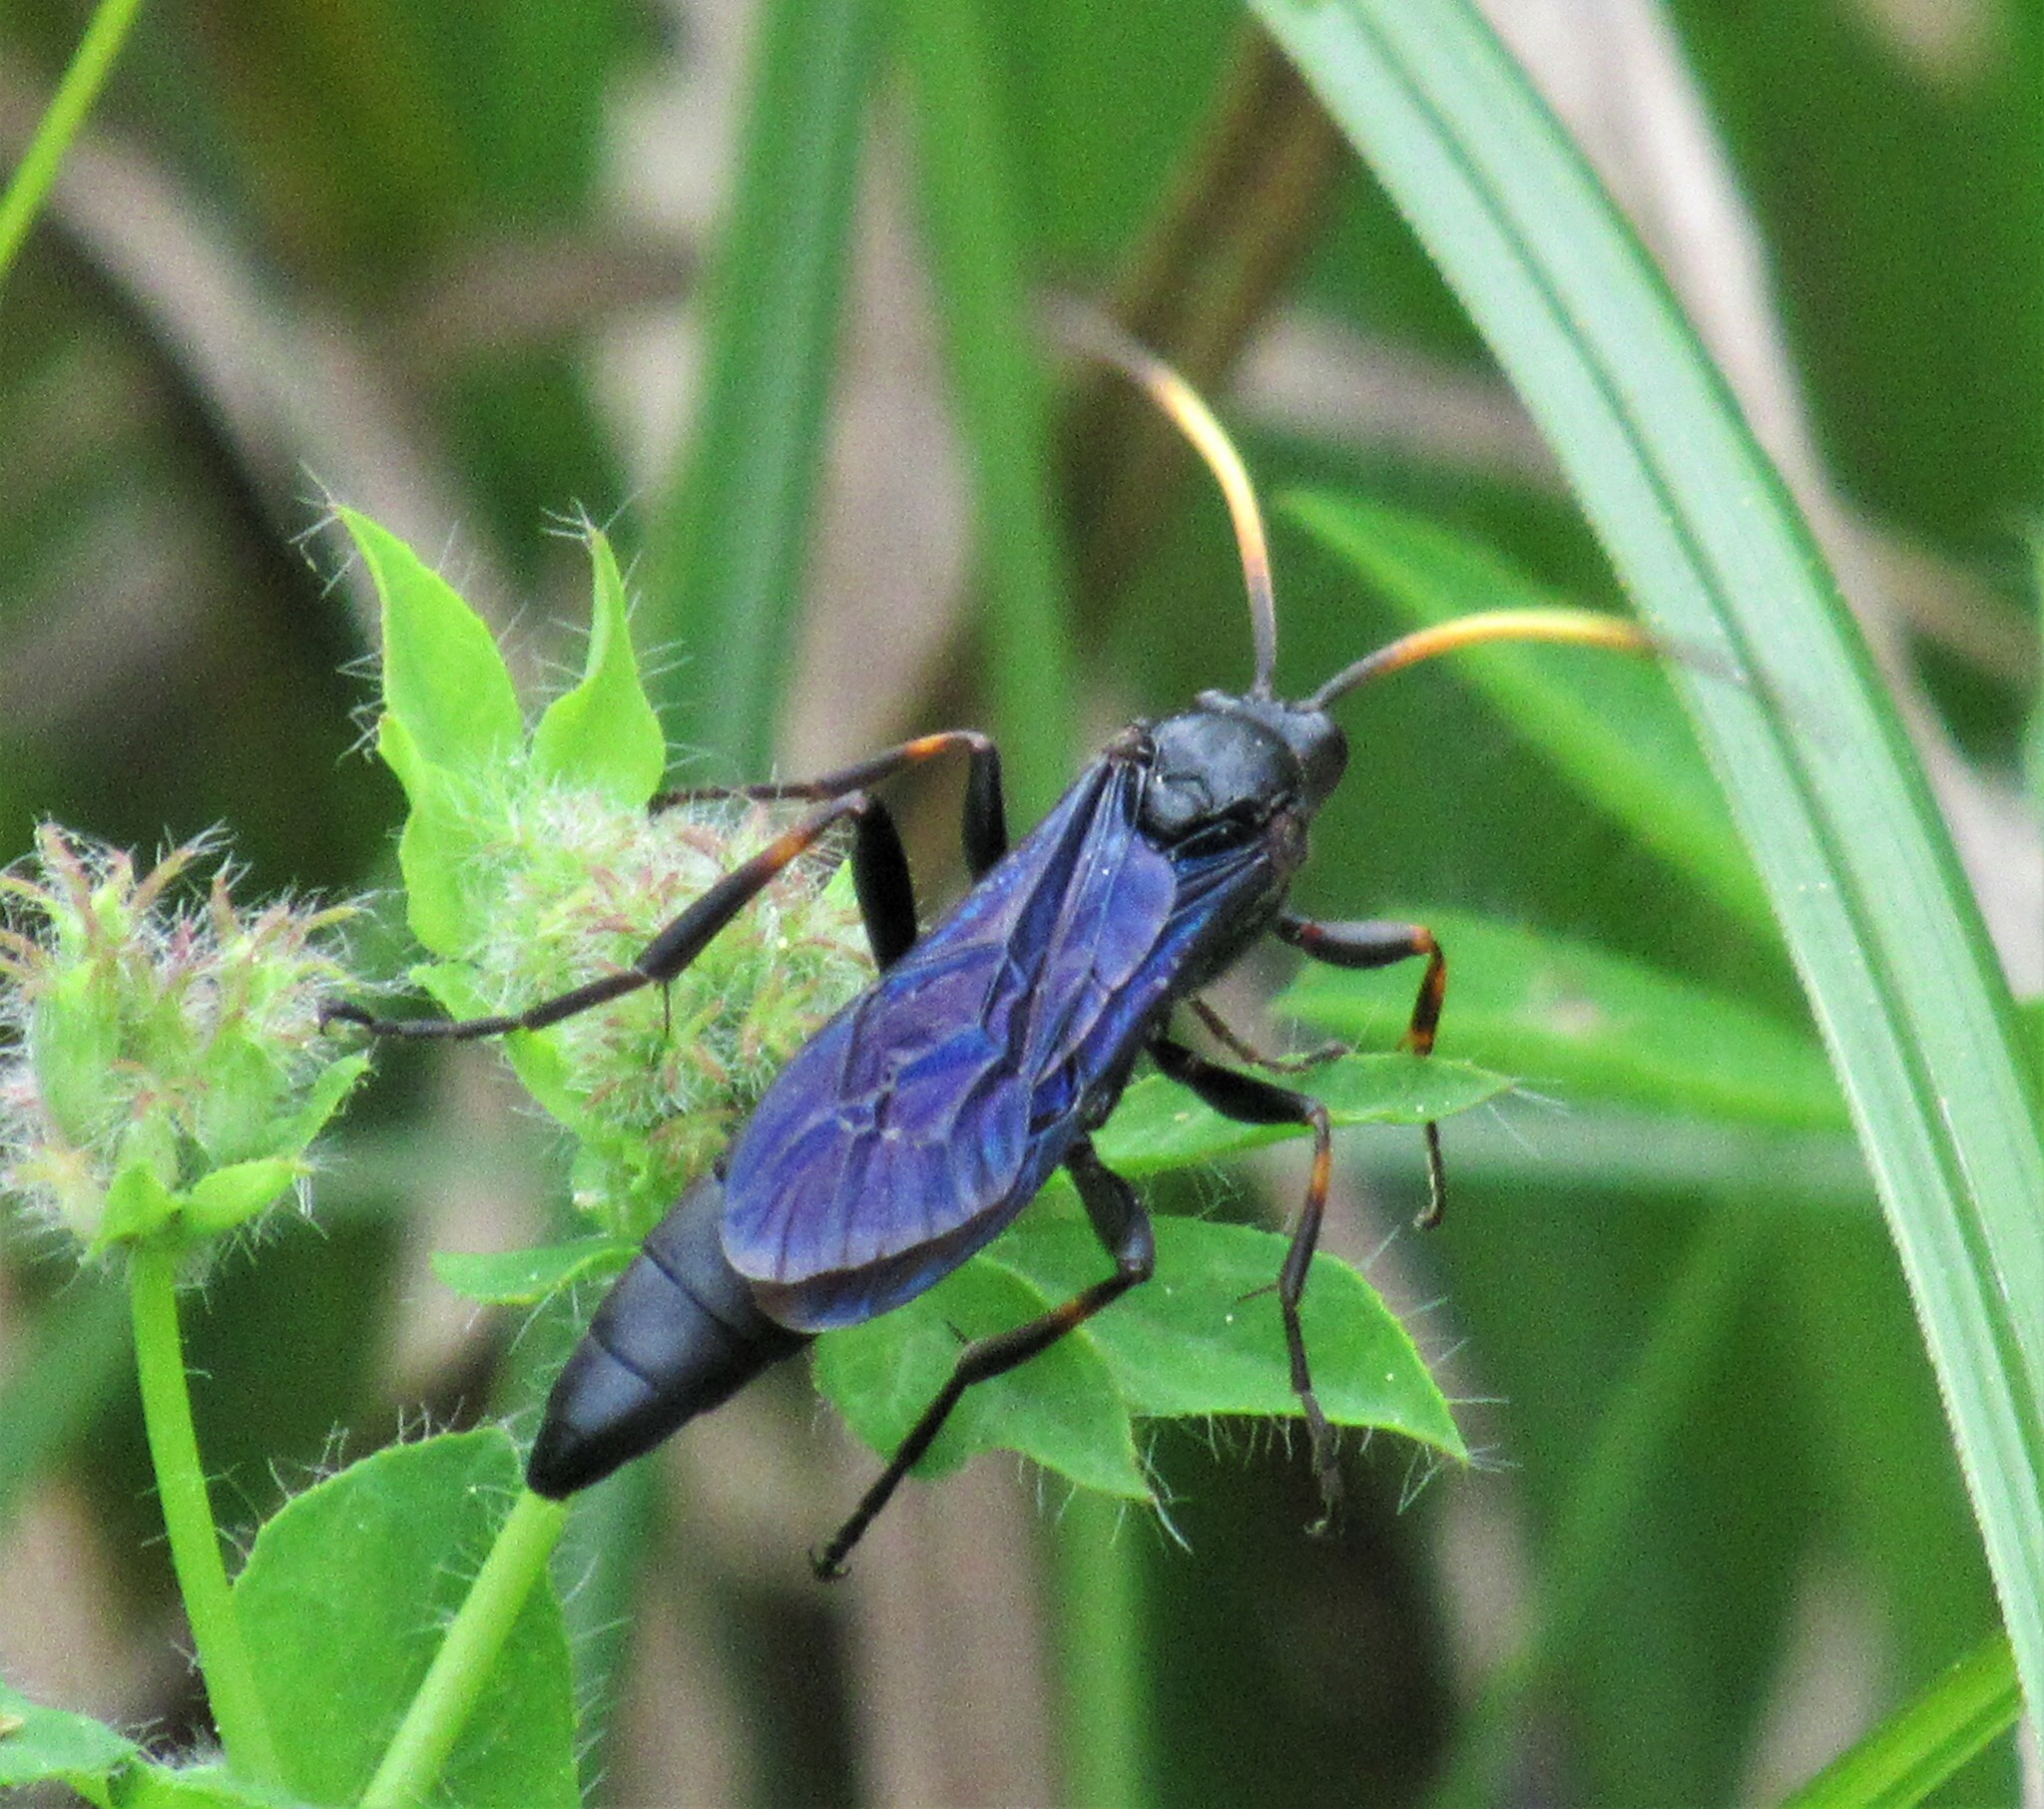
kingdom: Animalia
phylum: Arthropoda
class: Insecta
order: Hymenoptera
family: Ichneumonidae
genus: Ichneumon
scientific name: Ichneumon centrator
